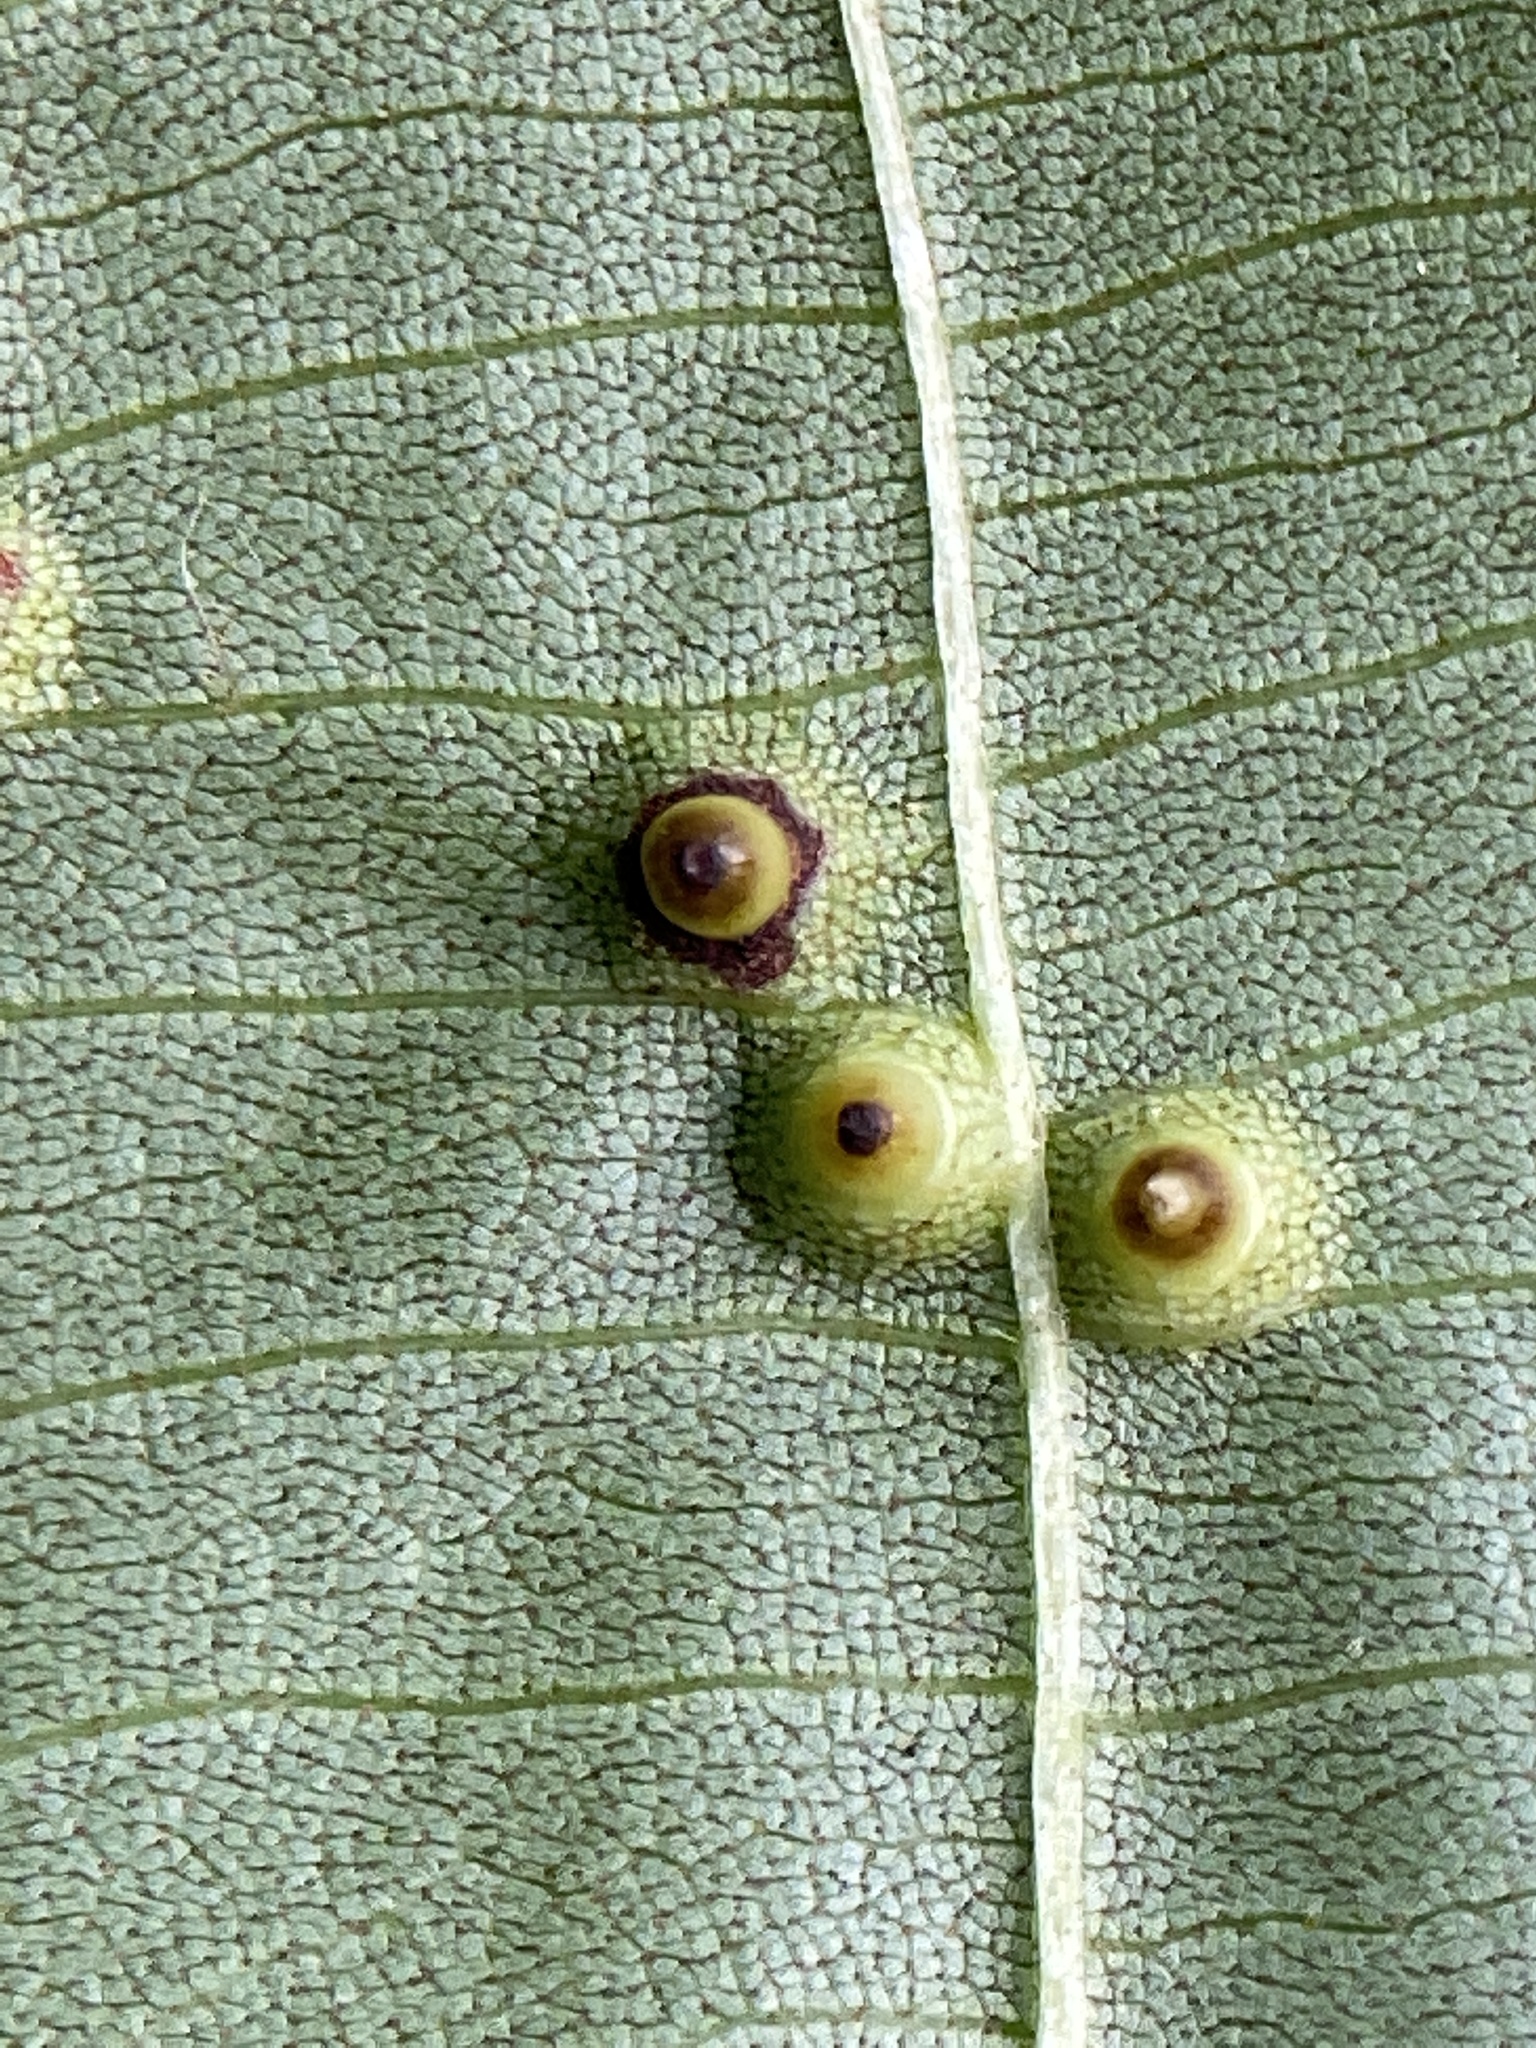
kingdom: Animalia
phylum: Arthropoda
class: Insecta
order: Diptera
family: Cecidomyiidae
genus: Caryomyia
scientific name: Caryomyia tubicola
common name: Hickory bullet gall midge
